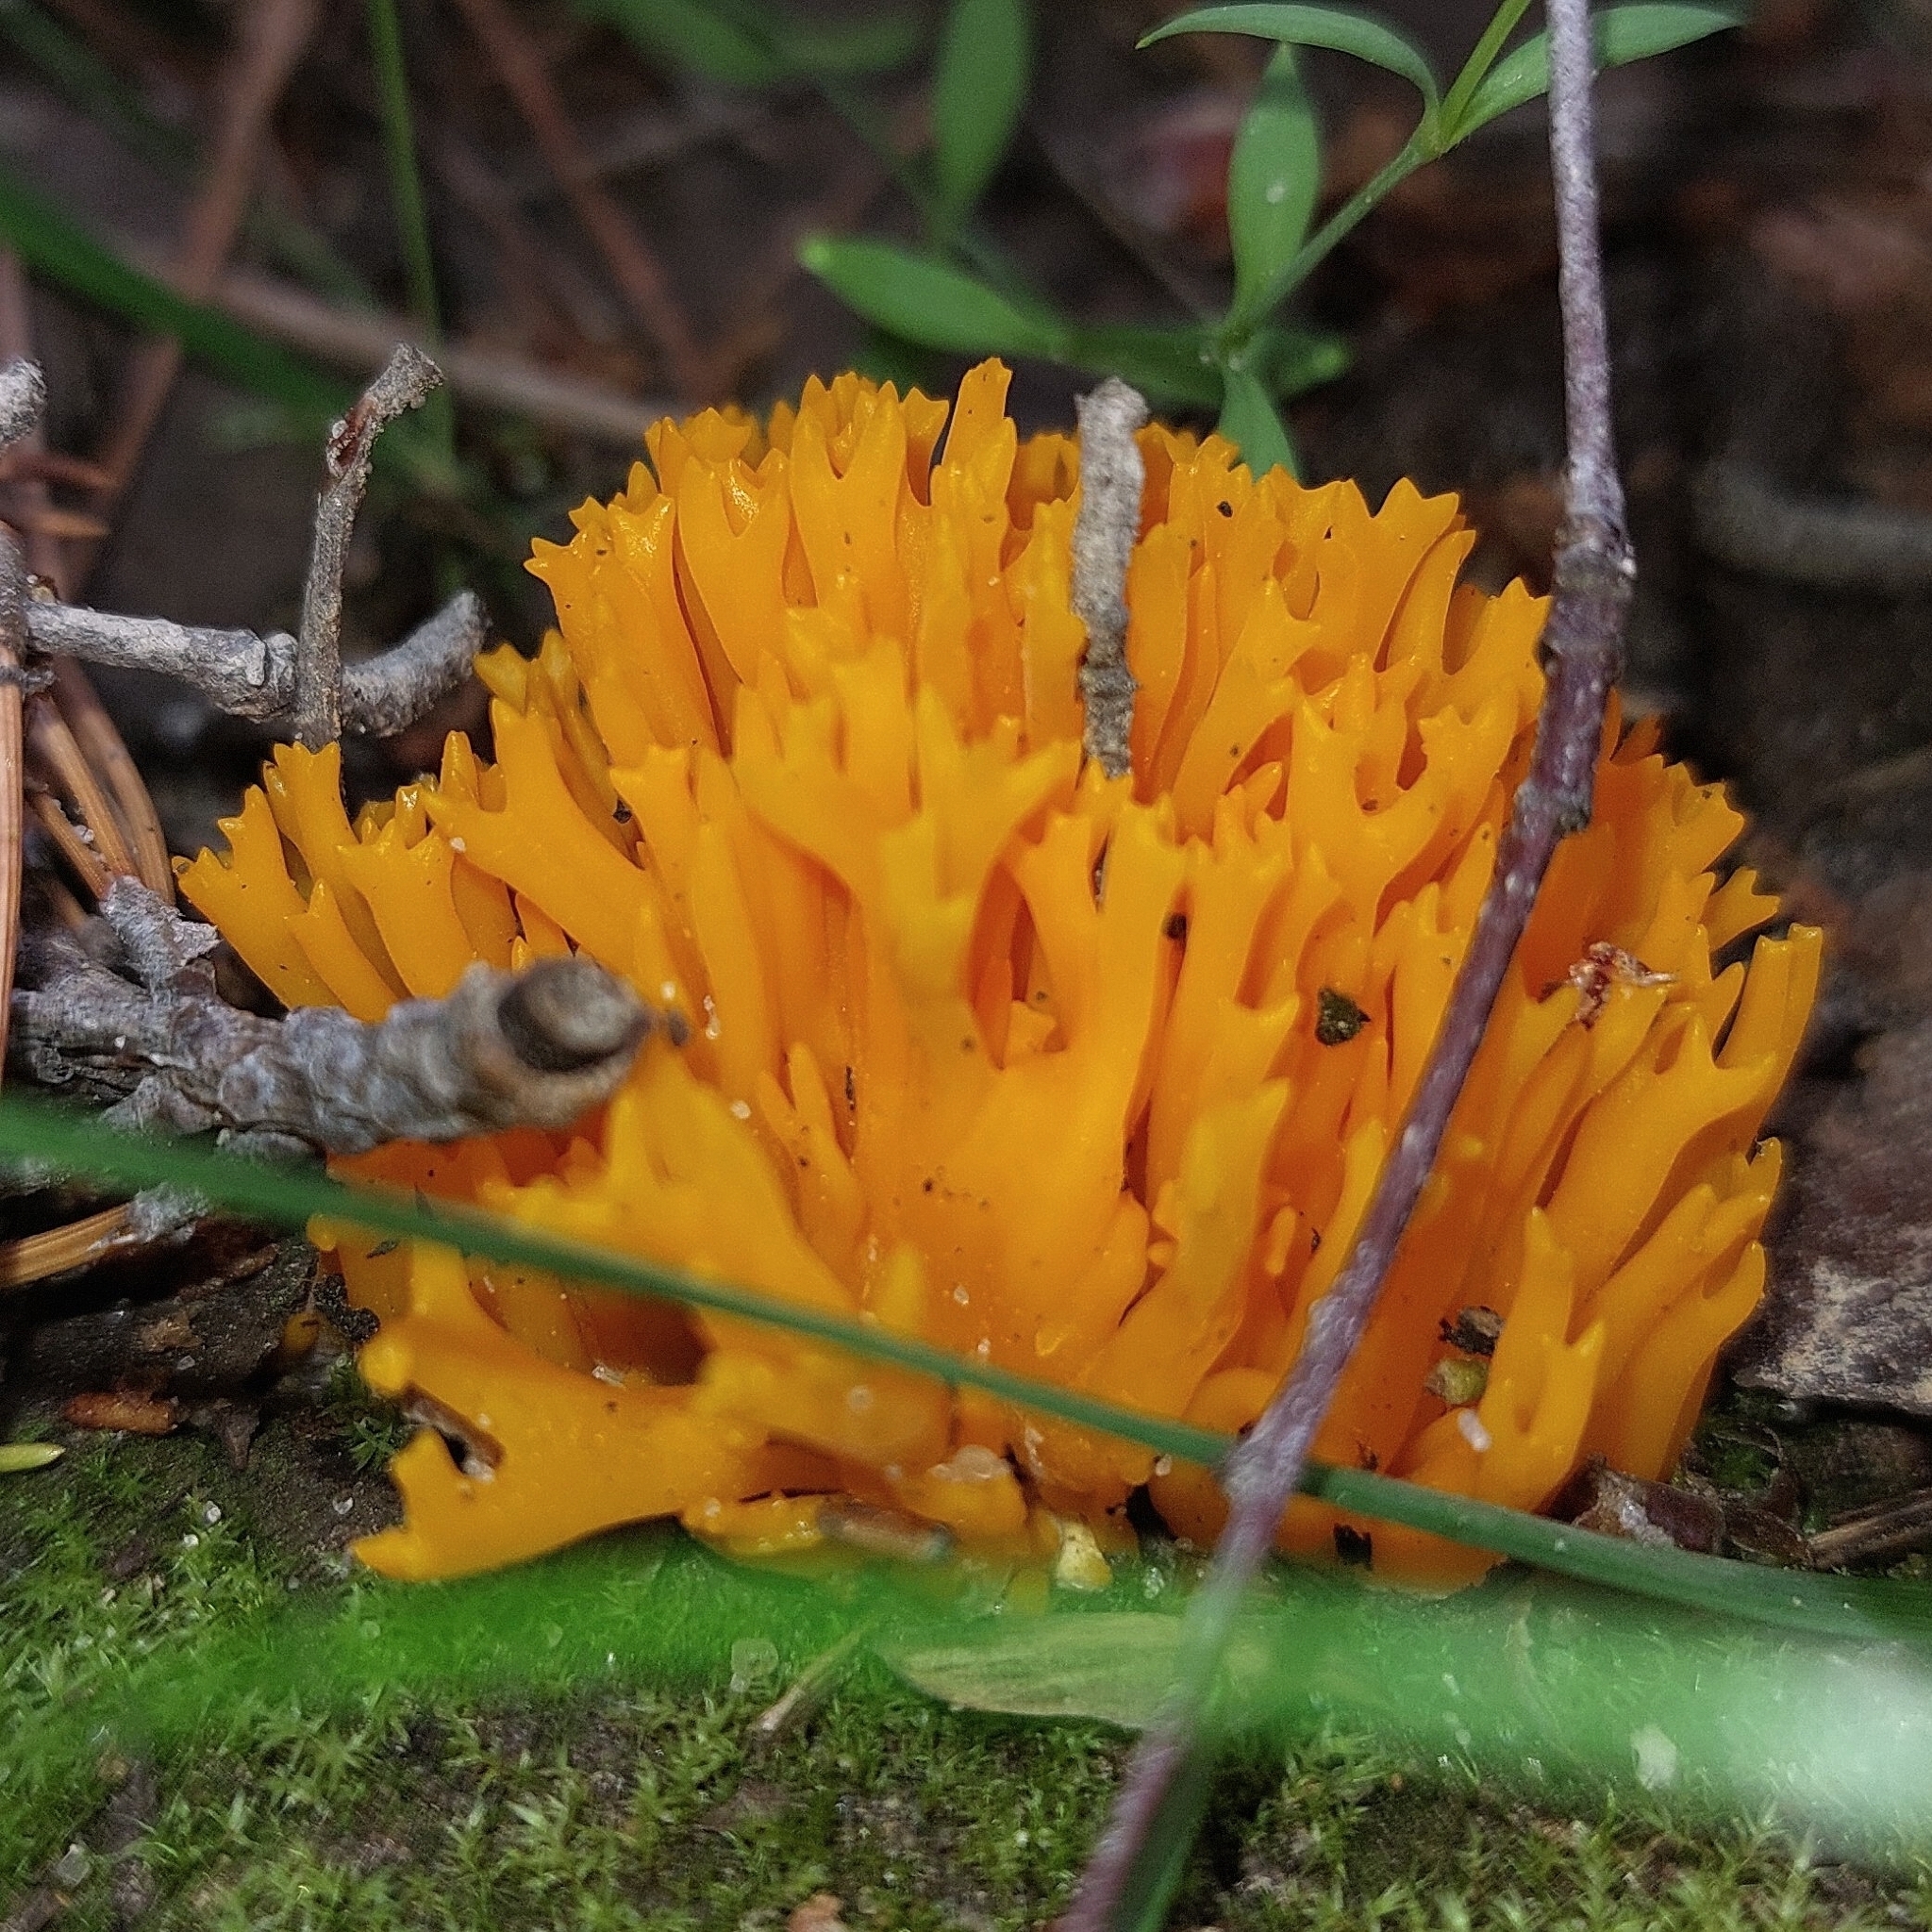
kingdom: Fungi
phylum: Basidiomycota
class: Dacrymycetes
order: Dacrymycetales
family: Dacrymycetaceae
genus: Calocera
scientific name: Calocera viscosa
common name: Yellow stagshorn
